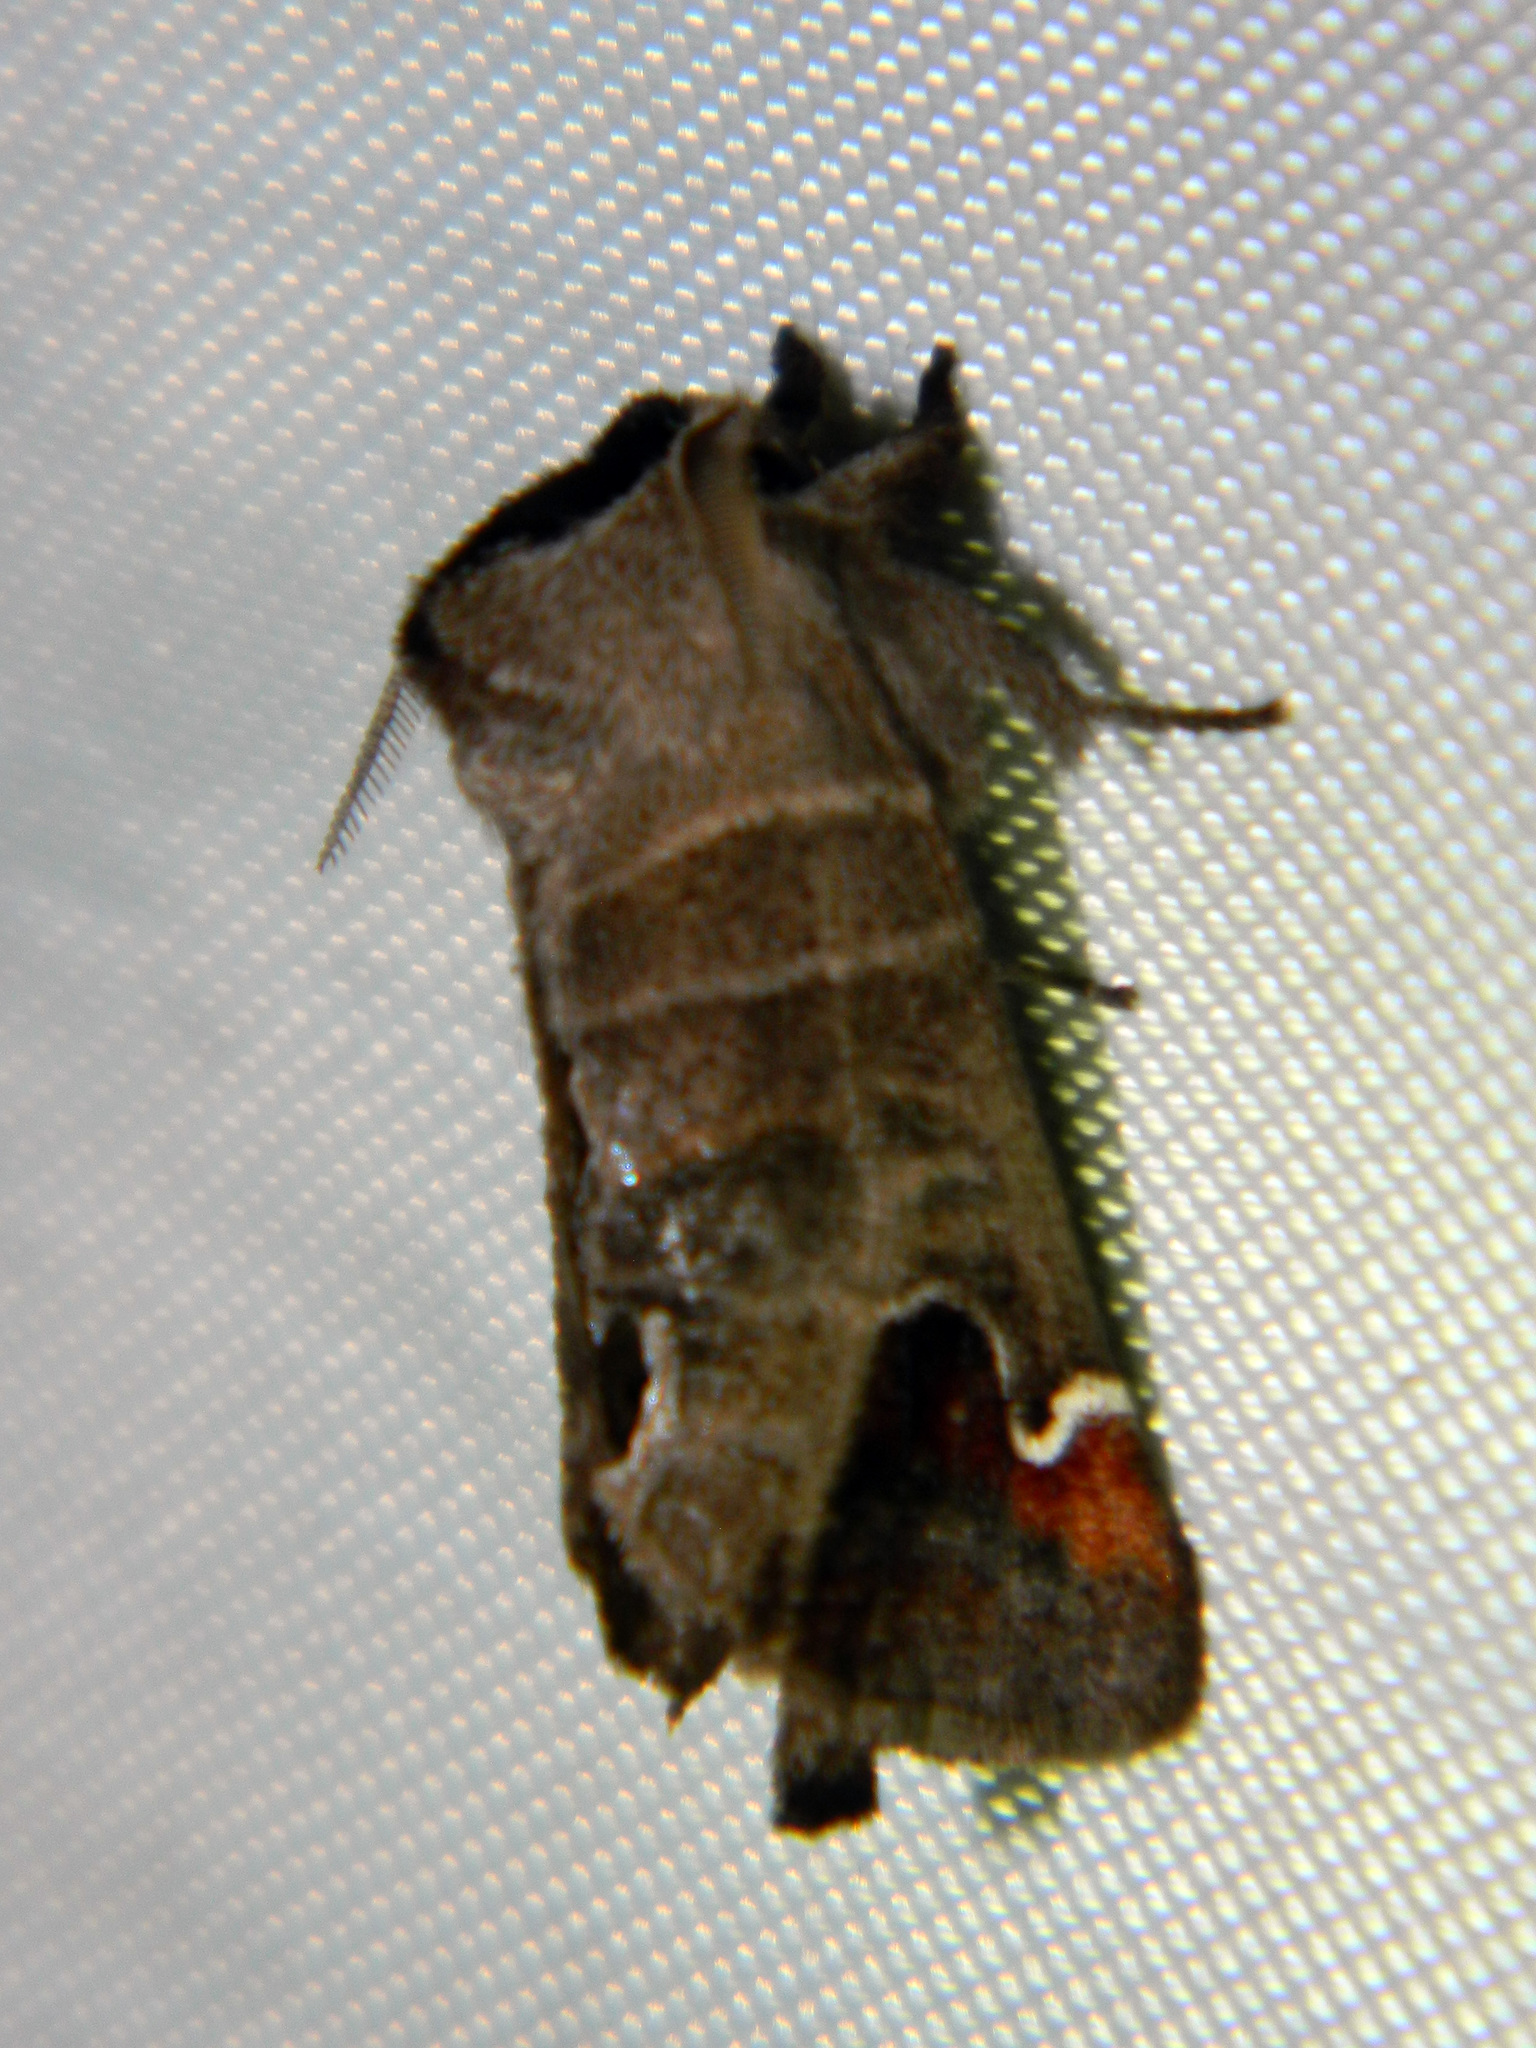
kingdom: Animalia
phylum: Arthropoda
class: Insecta
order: Lepidoptera
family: Notodontidae
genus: Clostera
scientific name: Clostera albosigma
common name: Sigmoid prominent
